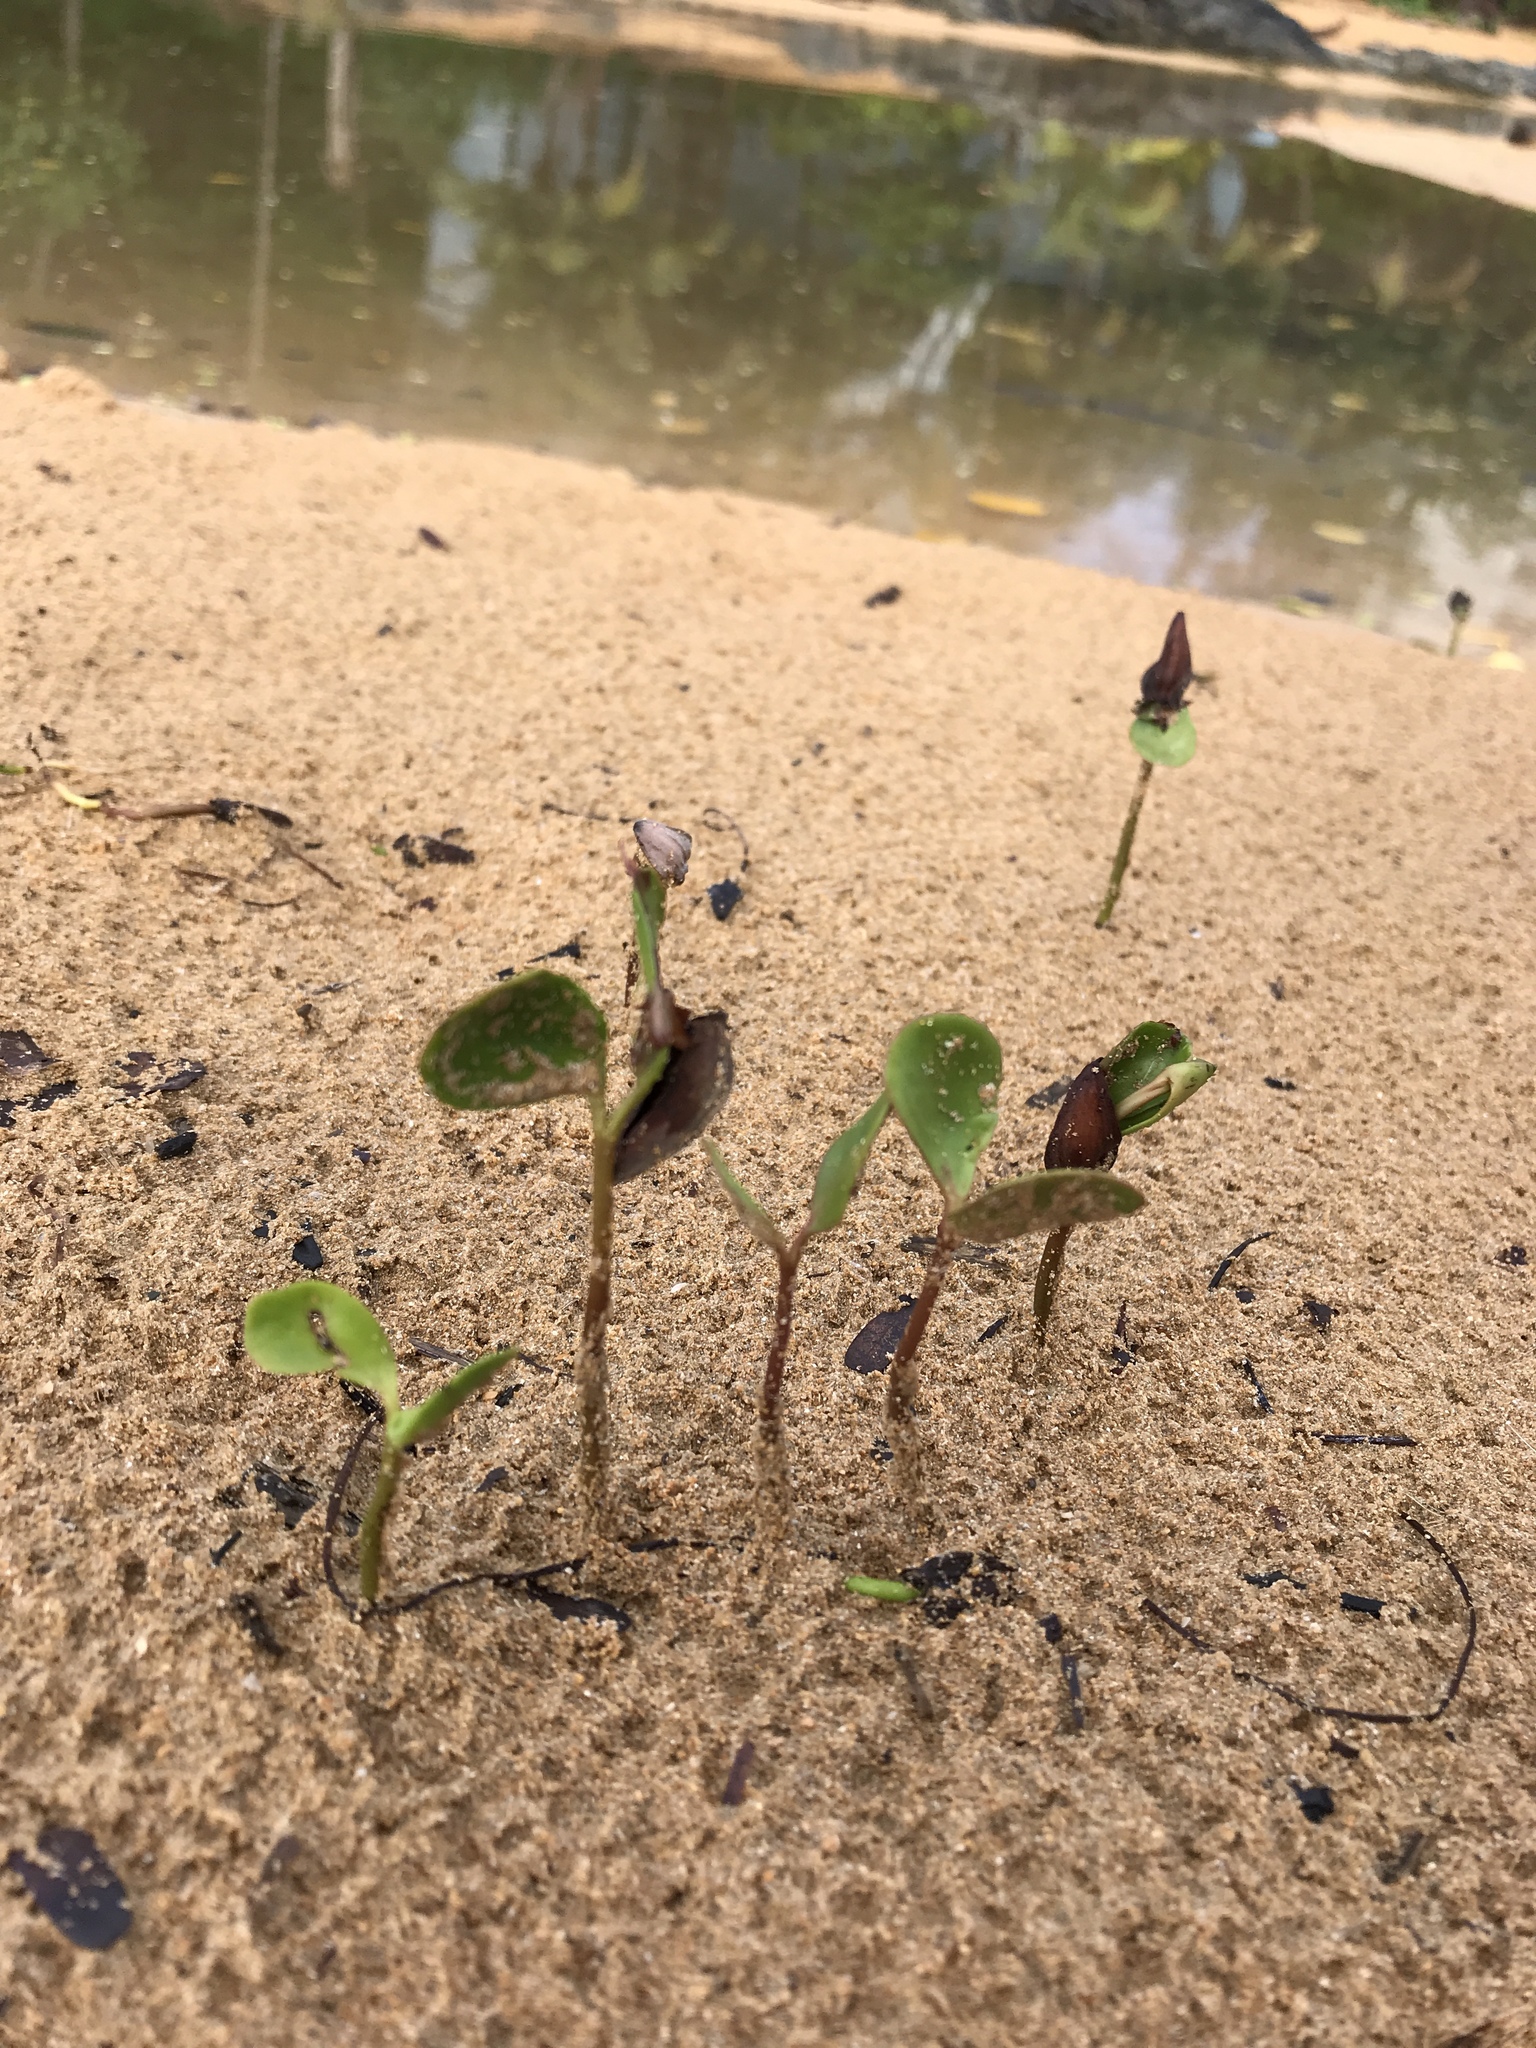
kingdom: Plantae
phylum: Tracheophyta
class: Magnoliopsida
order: Myrtales
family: Combretaceae
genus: Laguncularia
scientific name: Laguncularia racemosa
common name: White mangrove
